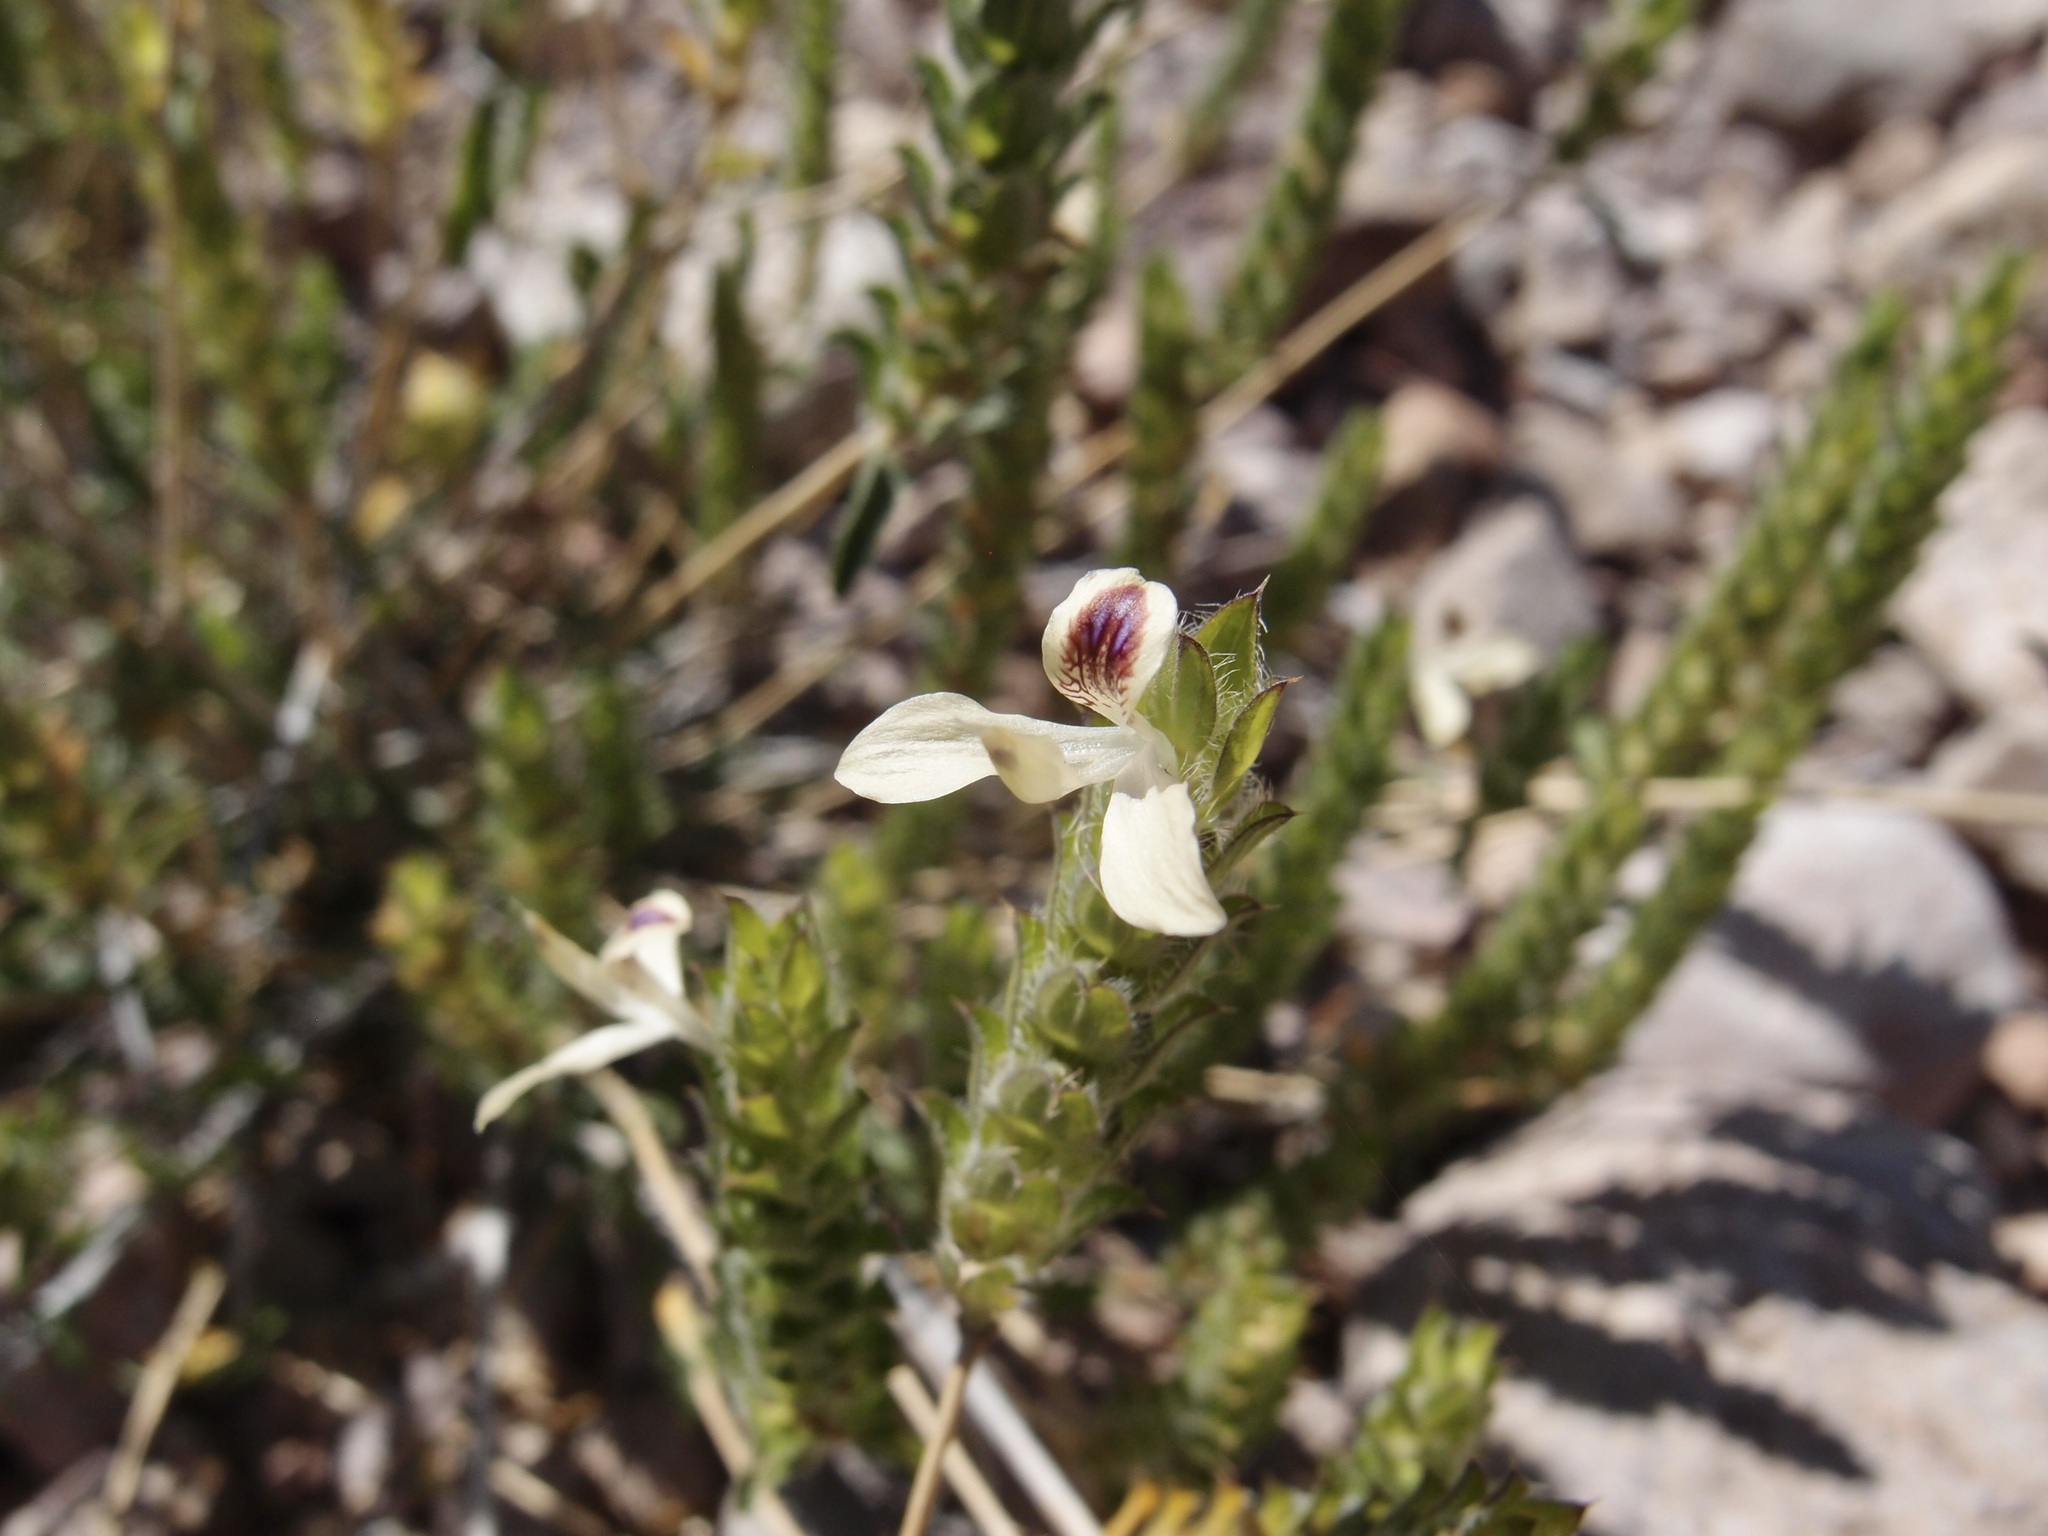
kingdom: Plantae
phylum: Tracheophyta
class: Magnoliopsida
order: Lamiales
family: Acanthaceae
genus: Tetramerium
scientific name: Tetramerium nervosum
